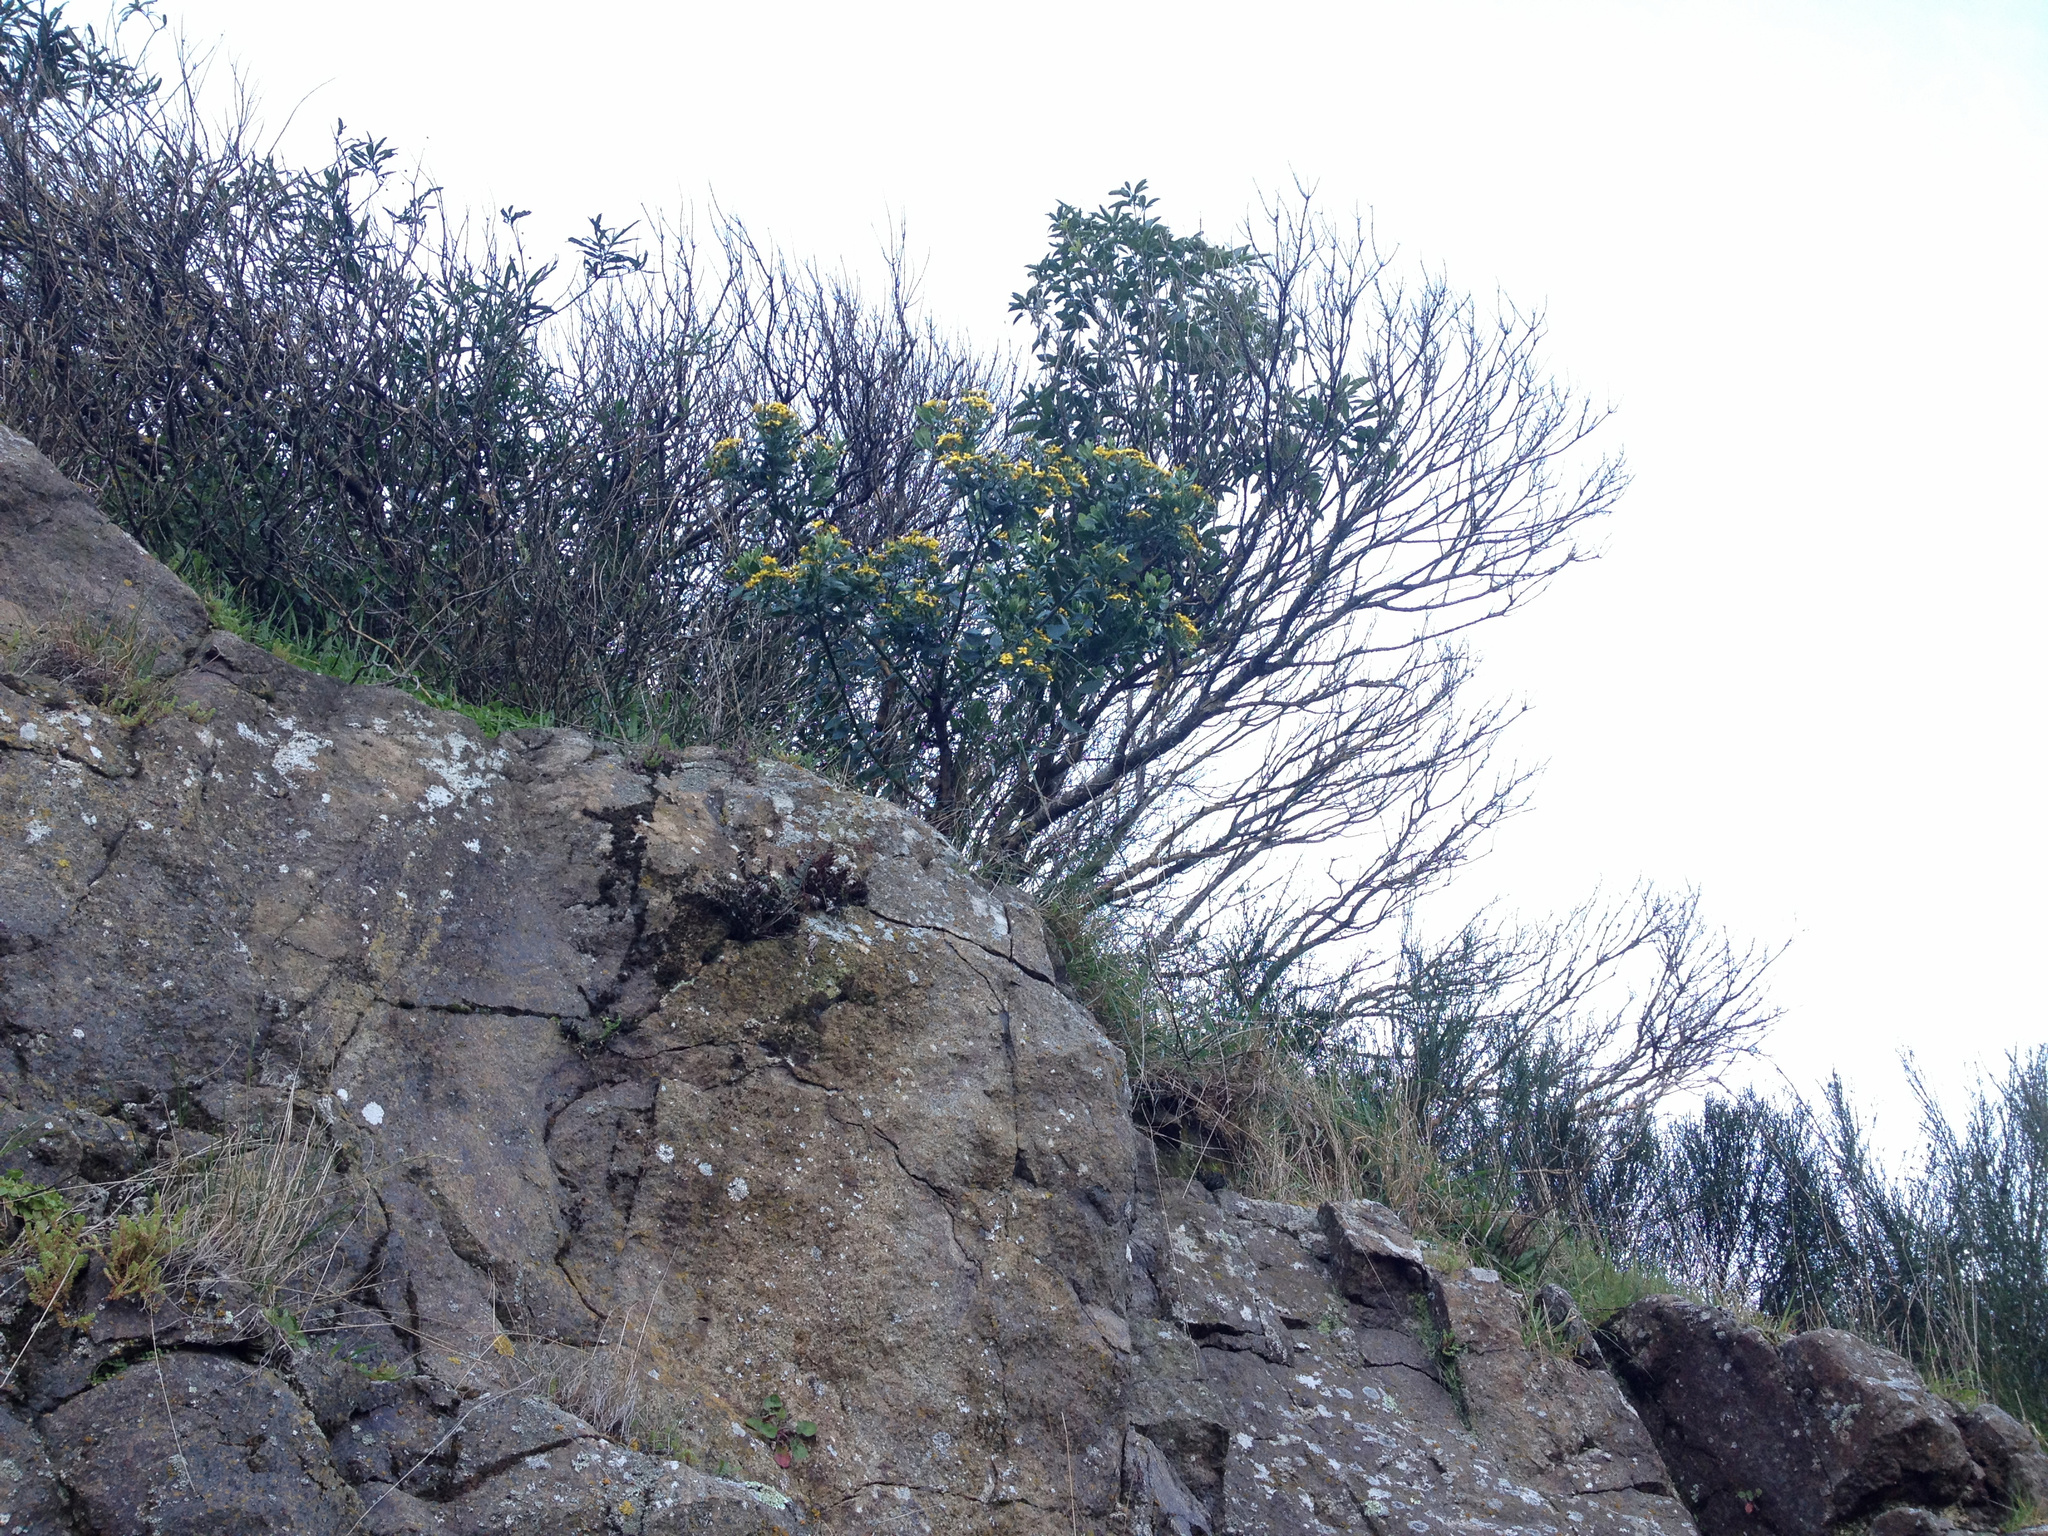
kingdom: Plantae
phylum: Tracheophyta
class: Magnoliopsida
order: Asterales
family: Asteraceae
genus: Osteospermum
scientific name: Osteospermum moniliferum
